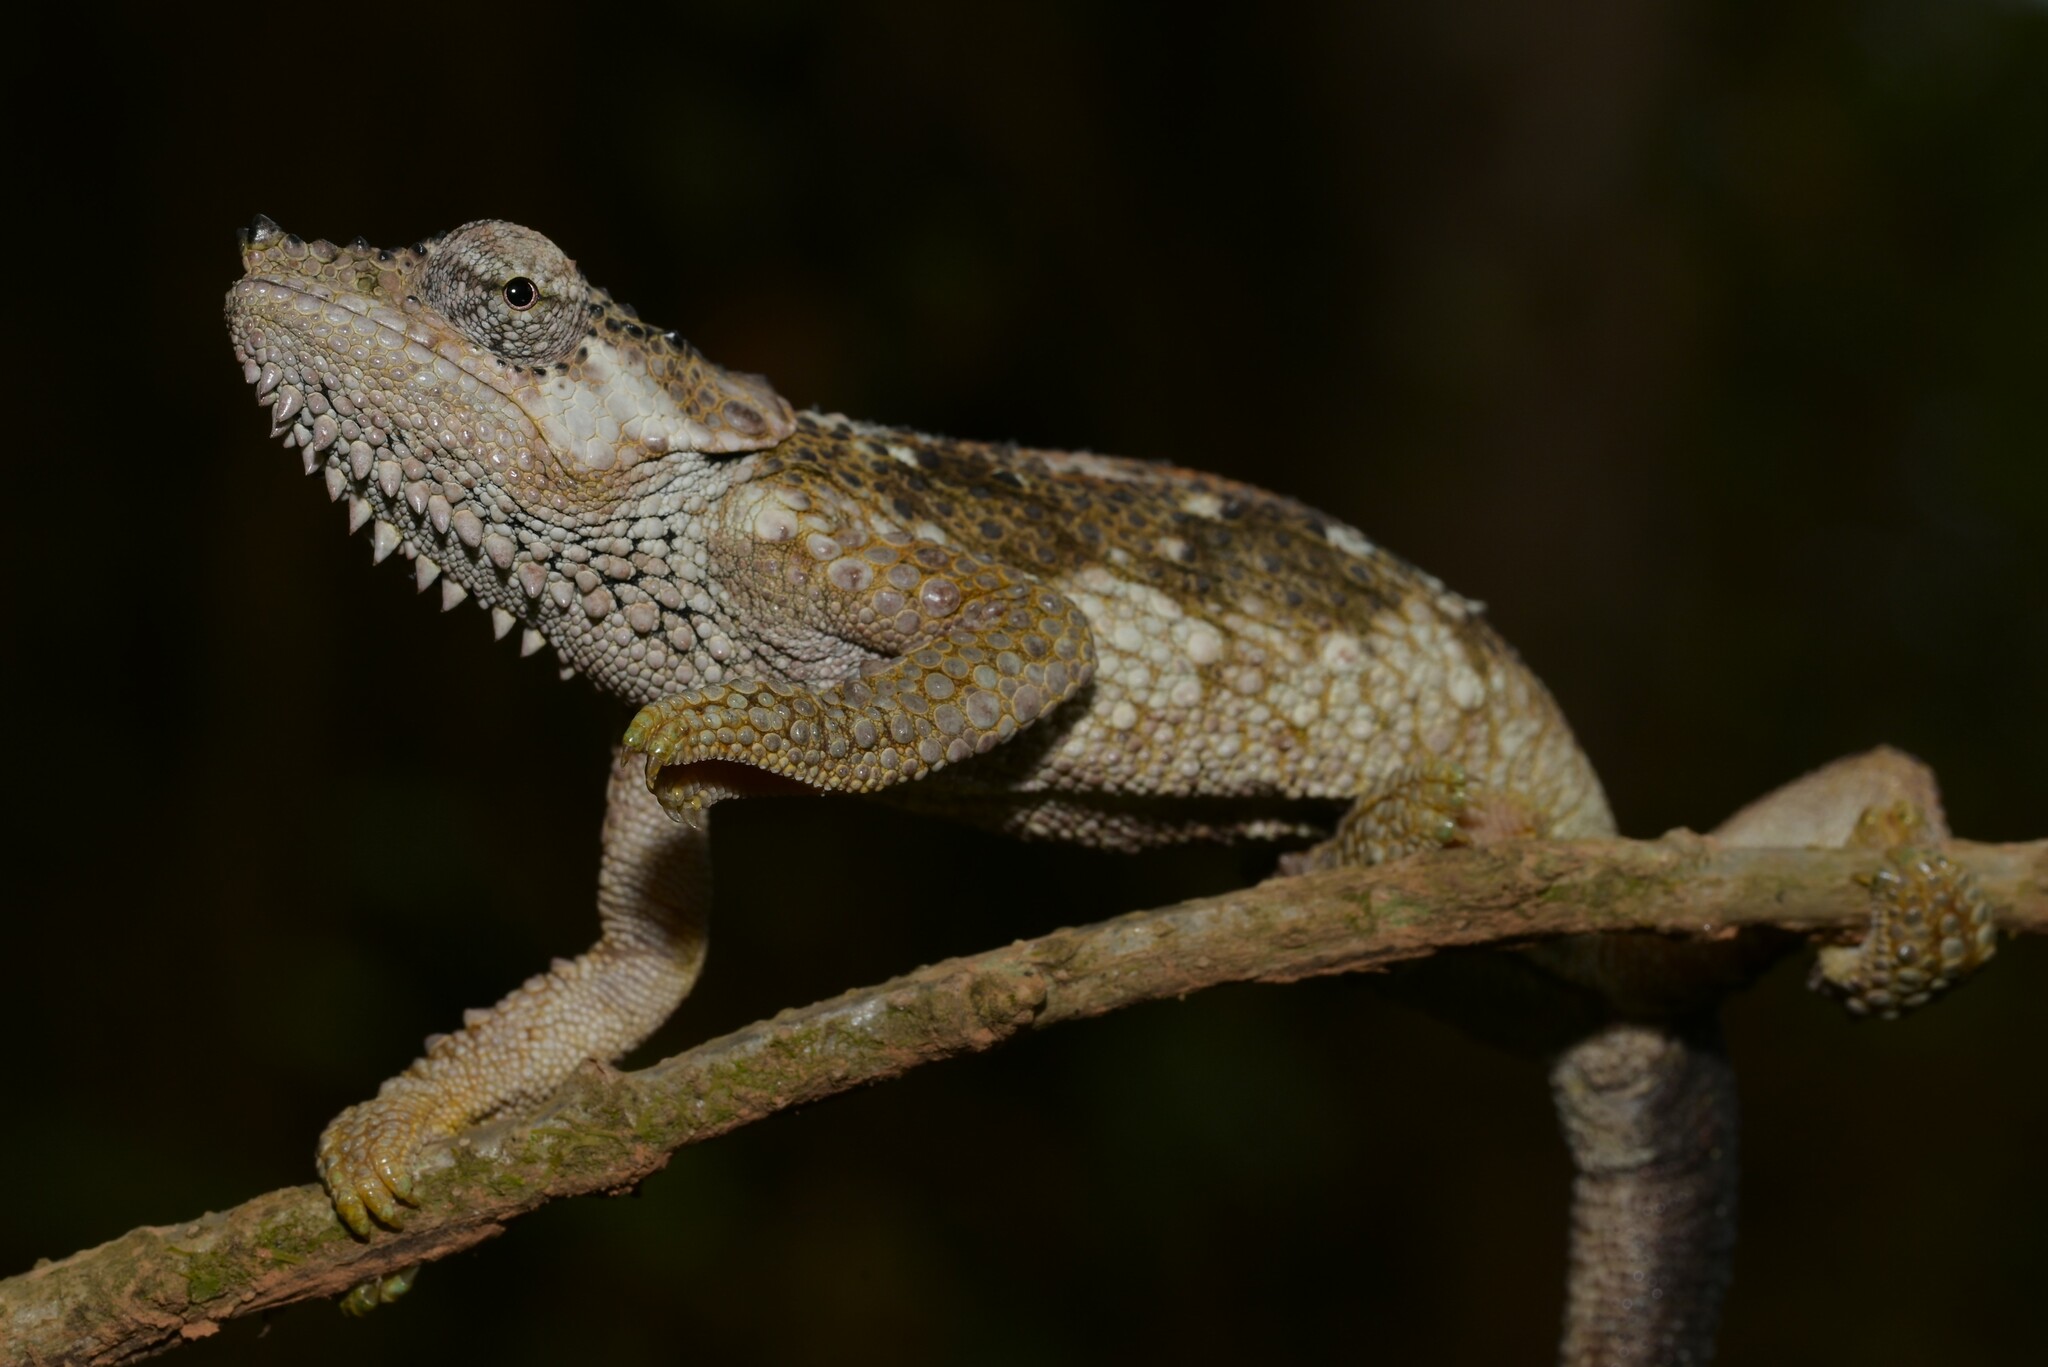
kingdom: Animalia
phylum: Chordata
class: Squamata
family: Chamaeleonidae
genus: Trioceros
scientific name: Trioceros tempeli
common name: Tanzania mountain chameleon
